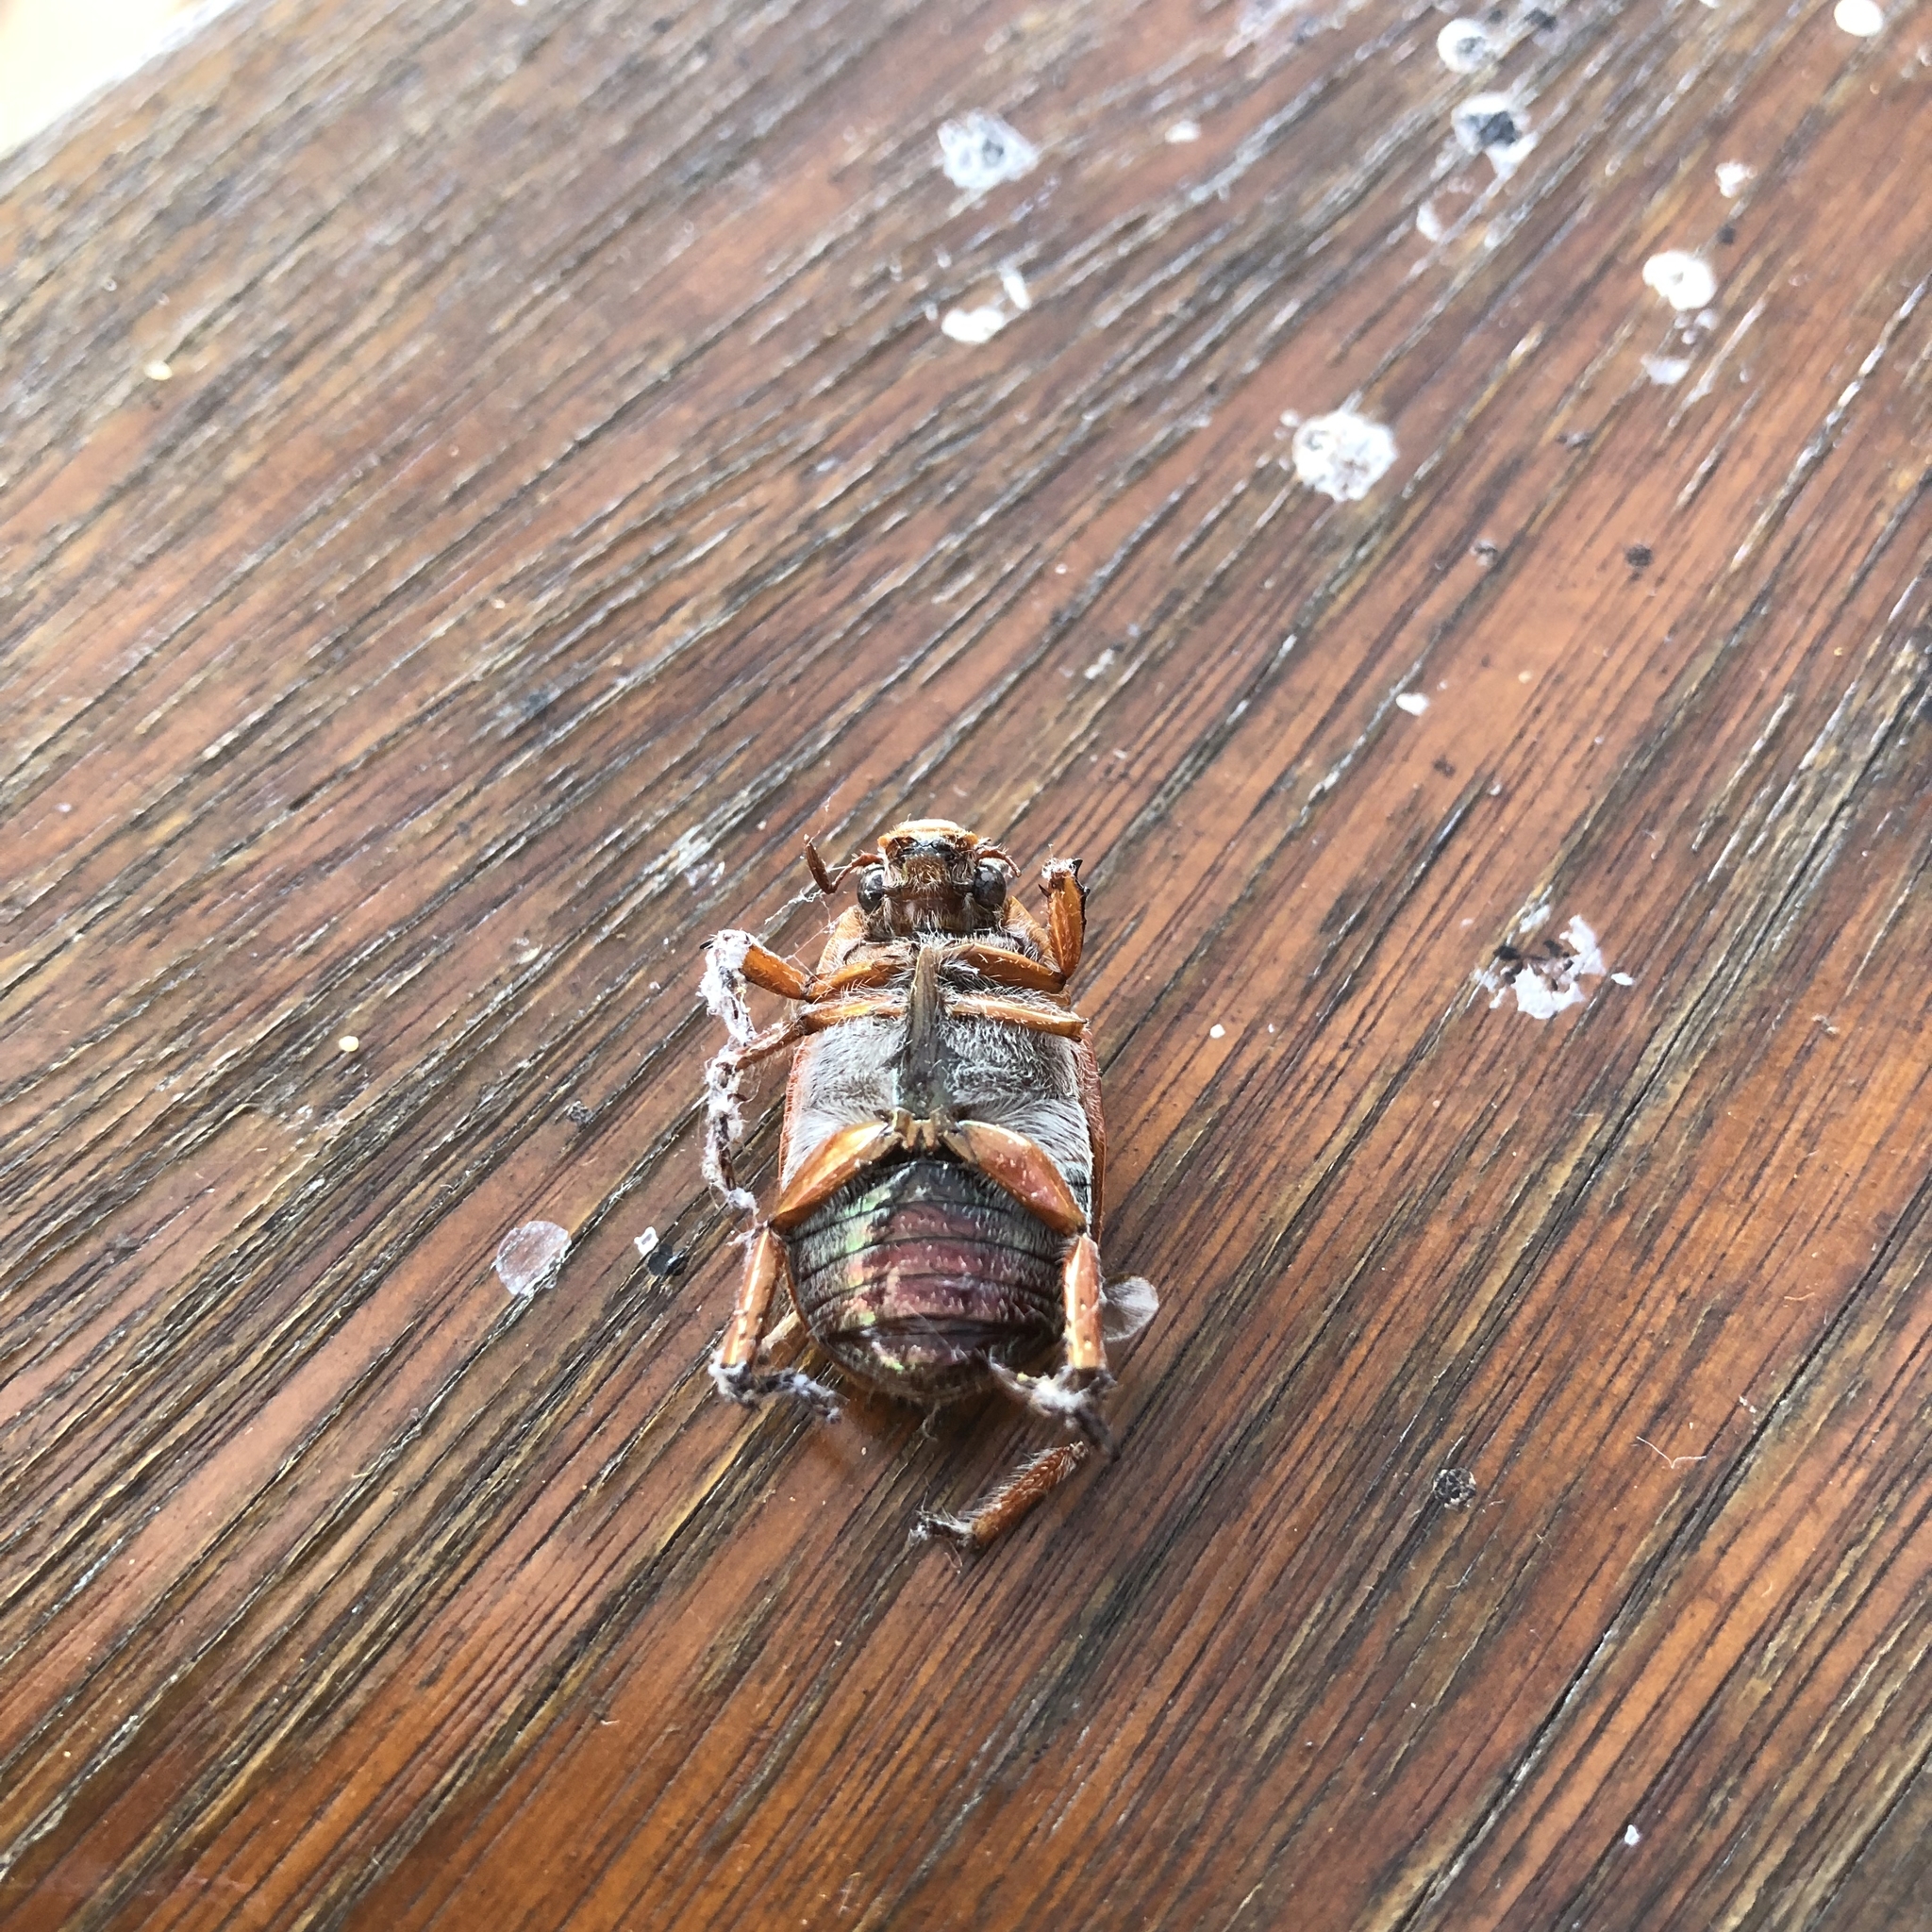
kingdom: Animalia
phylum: Arthropoda
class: Insecta
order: Coleoptera
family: Scarabaeidae
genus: Anoplognathus
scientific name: Anoplognathus porosus
